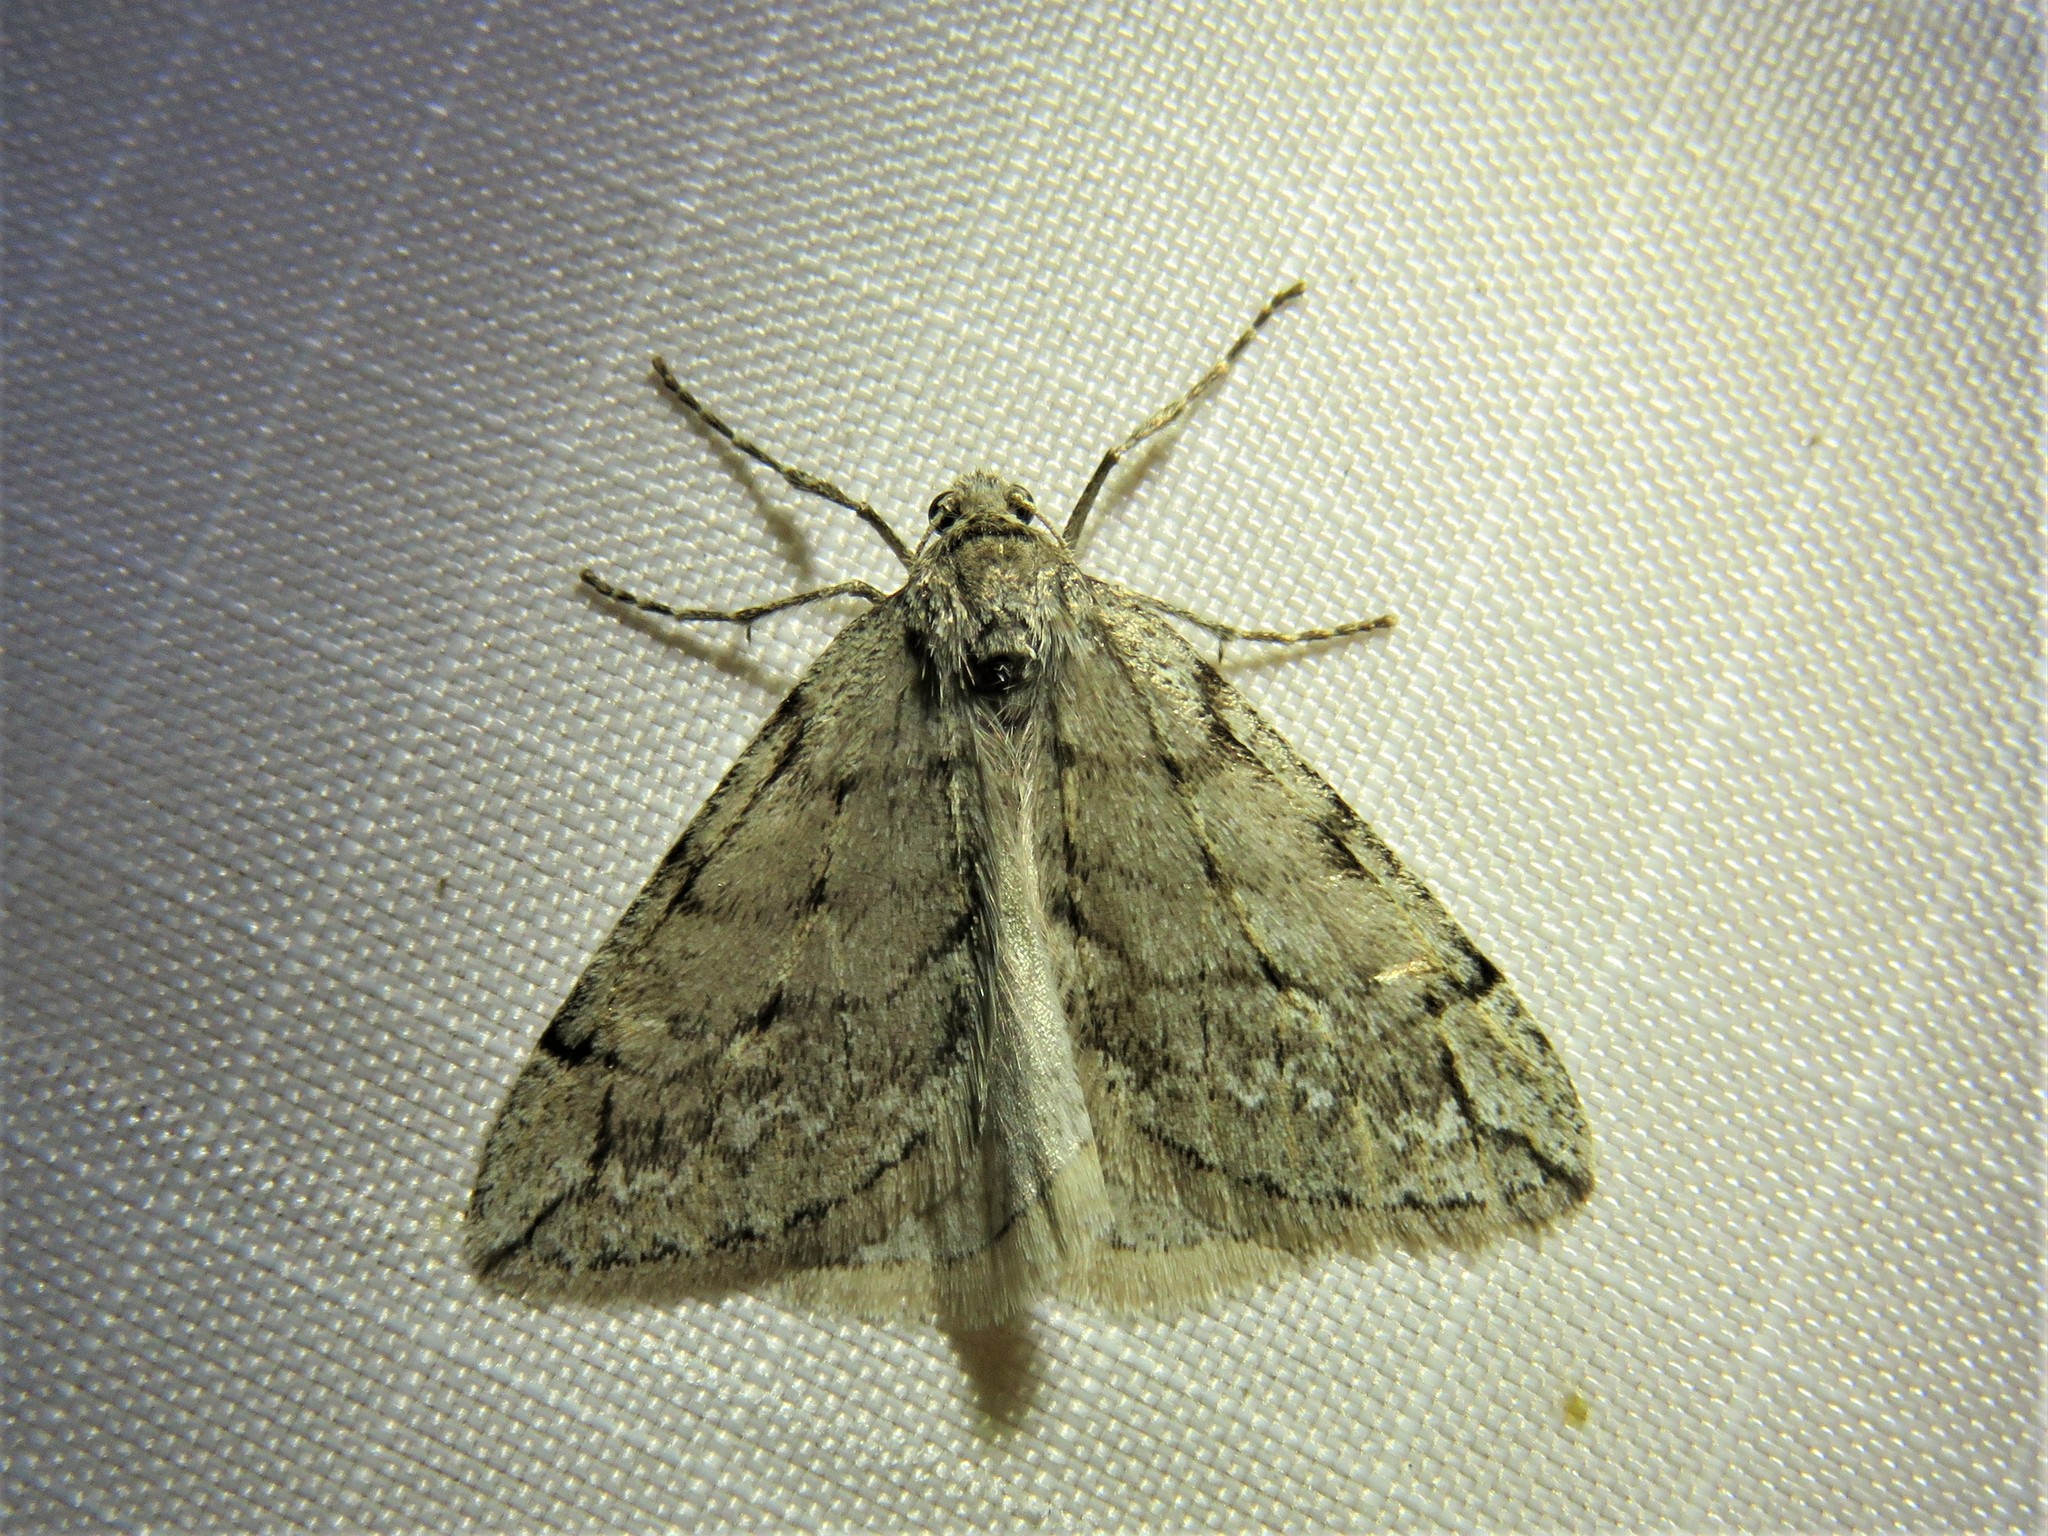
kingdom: Animalia
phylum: Arthropoda
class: Insecta
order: Lepidoptera
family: Geometridae
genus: Paleacrita
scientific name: Paleacrita vernata
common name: Spring cankerworm
